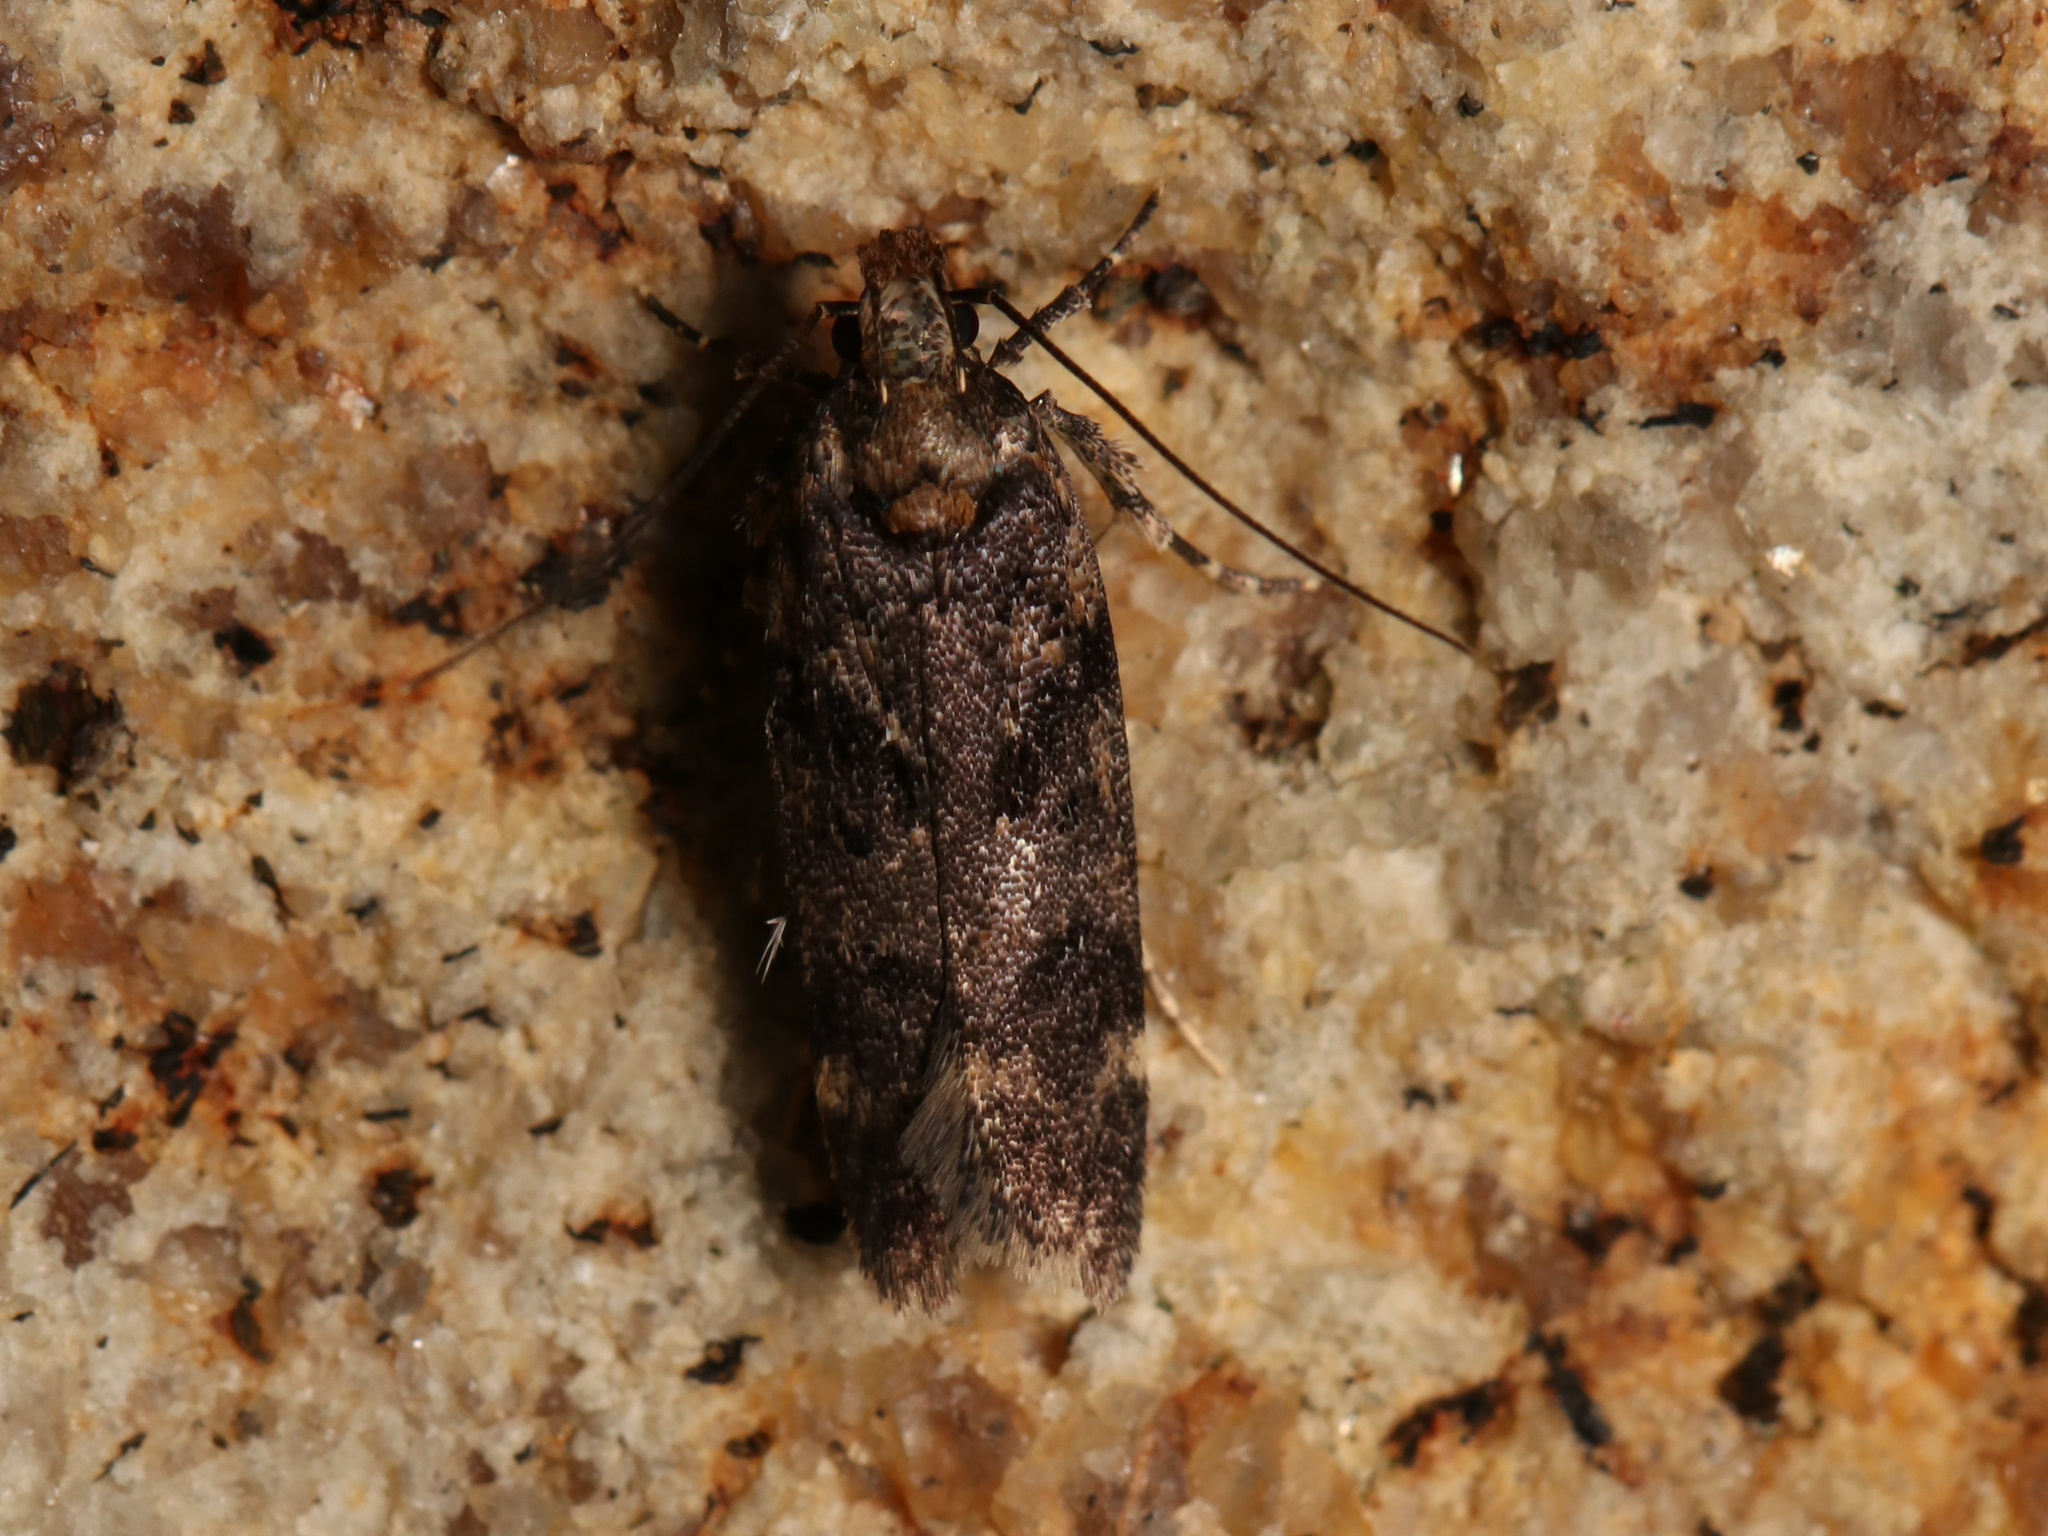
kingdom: Animalia
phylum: Arthropoda
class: Insecta
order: Lepidoptera
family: Gelechiidae
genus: Chionodes
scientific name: Chionodes sevir
